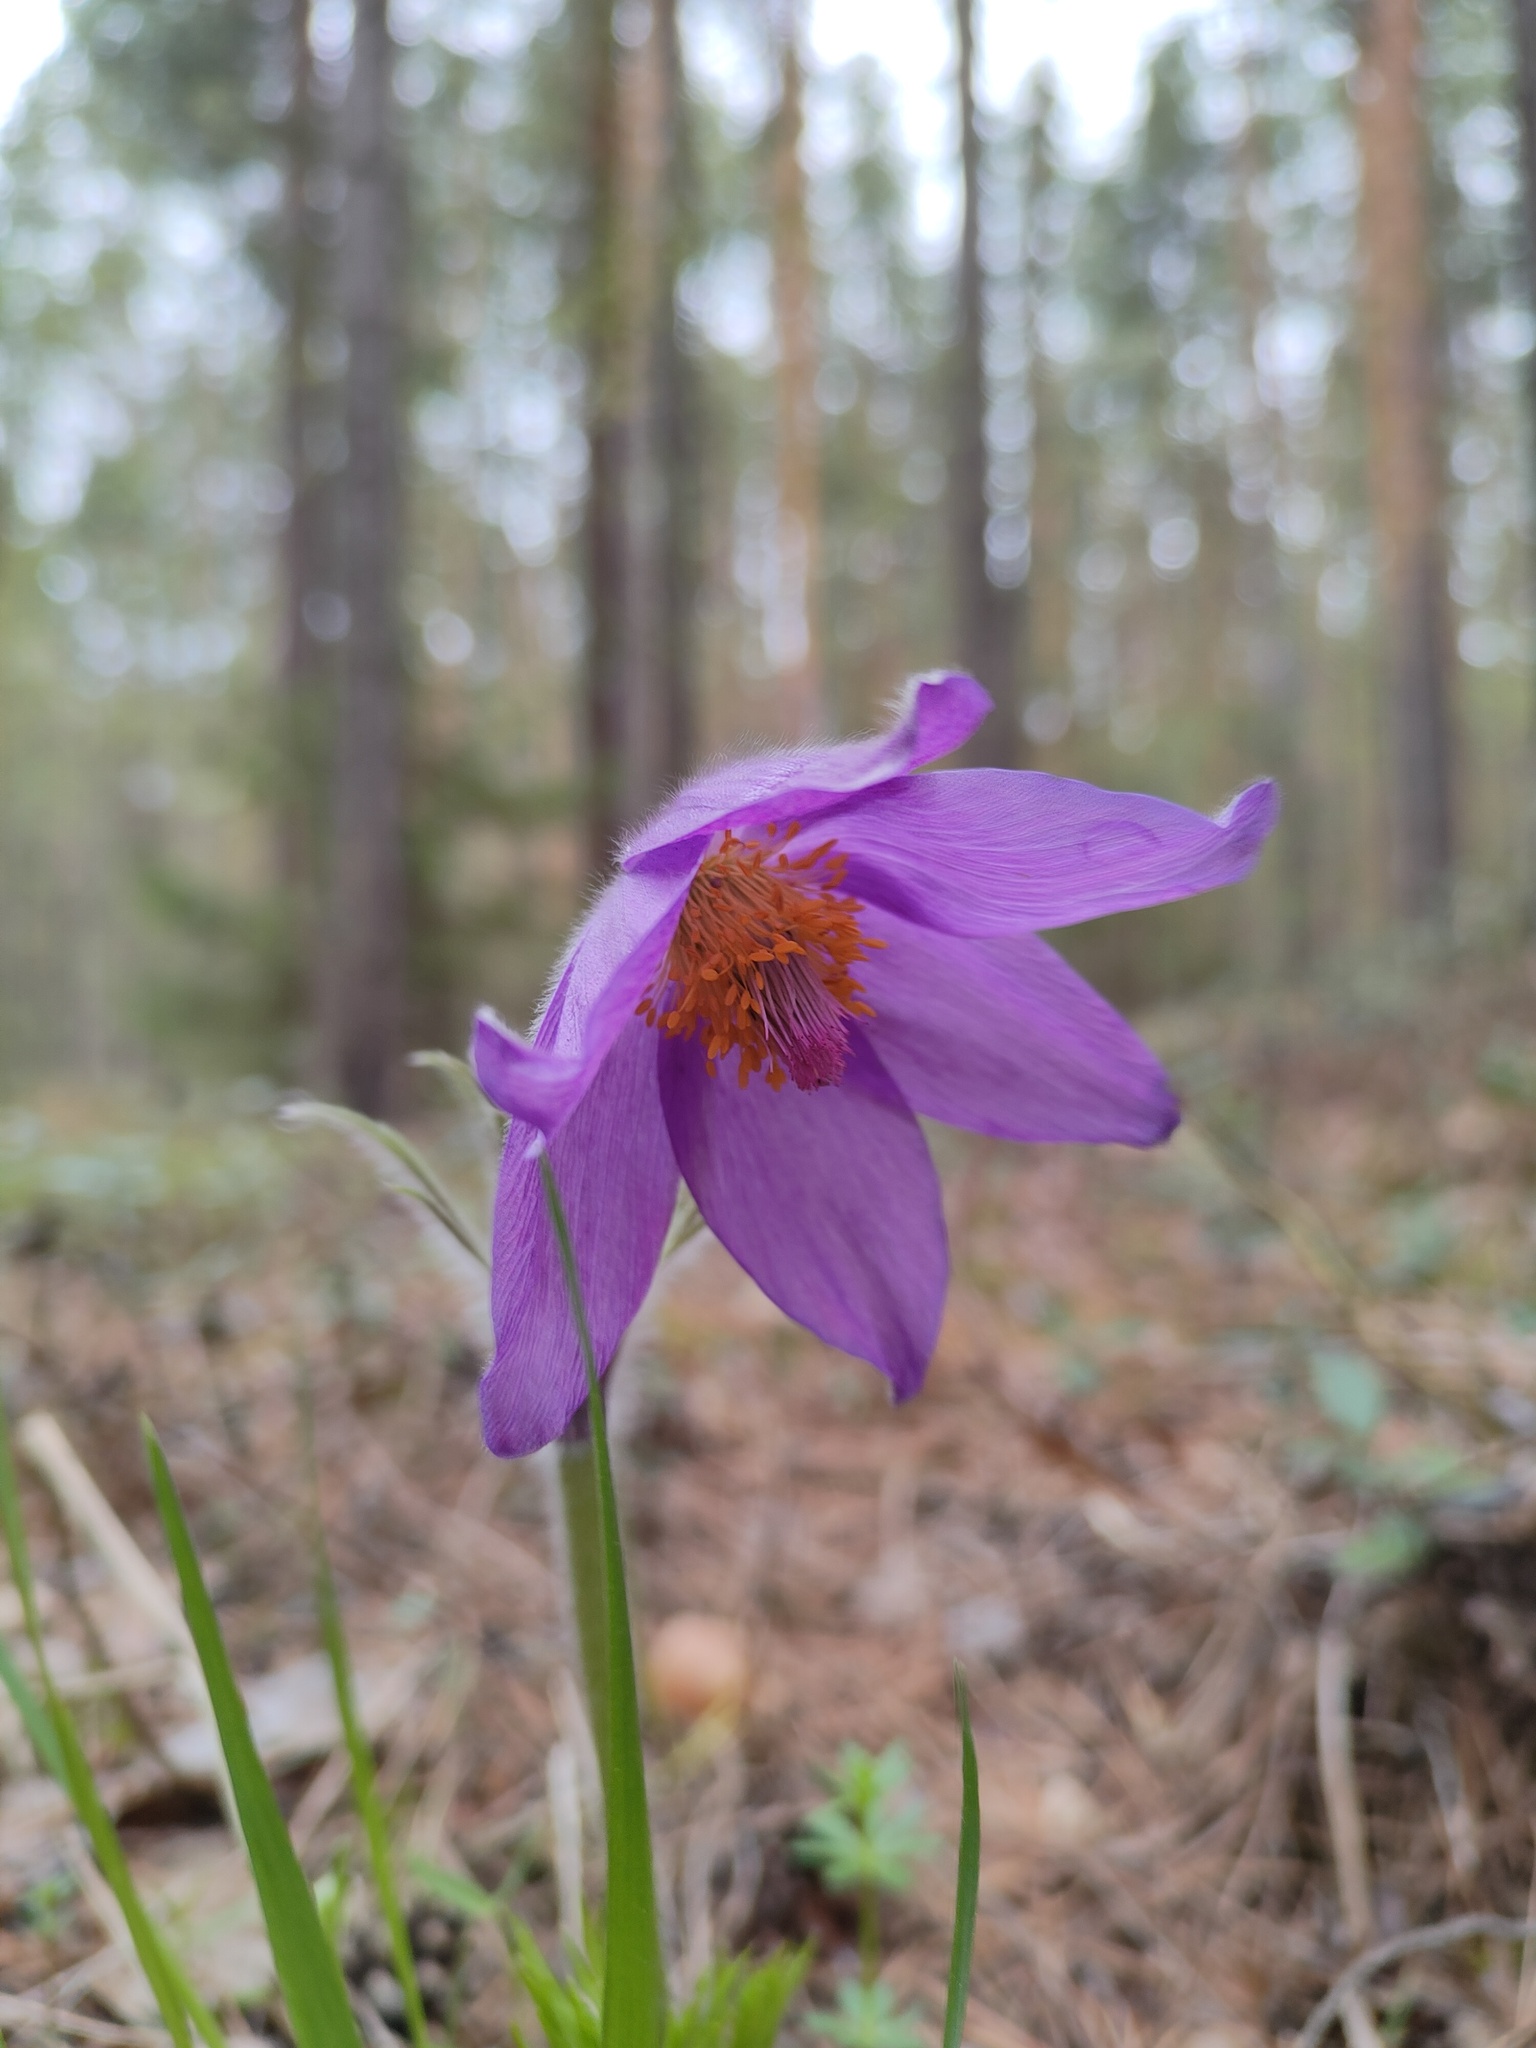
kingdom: Plantae
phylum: Tracheophyta
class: Magnoliopsida
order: Ranunculales
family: Ranunculaceae
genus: Pulsatilla
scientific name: Pulsatilla patens
